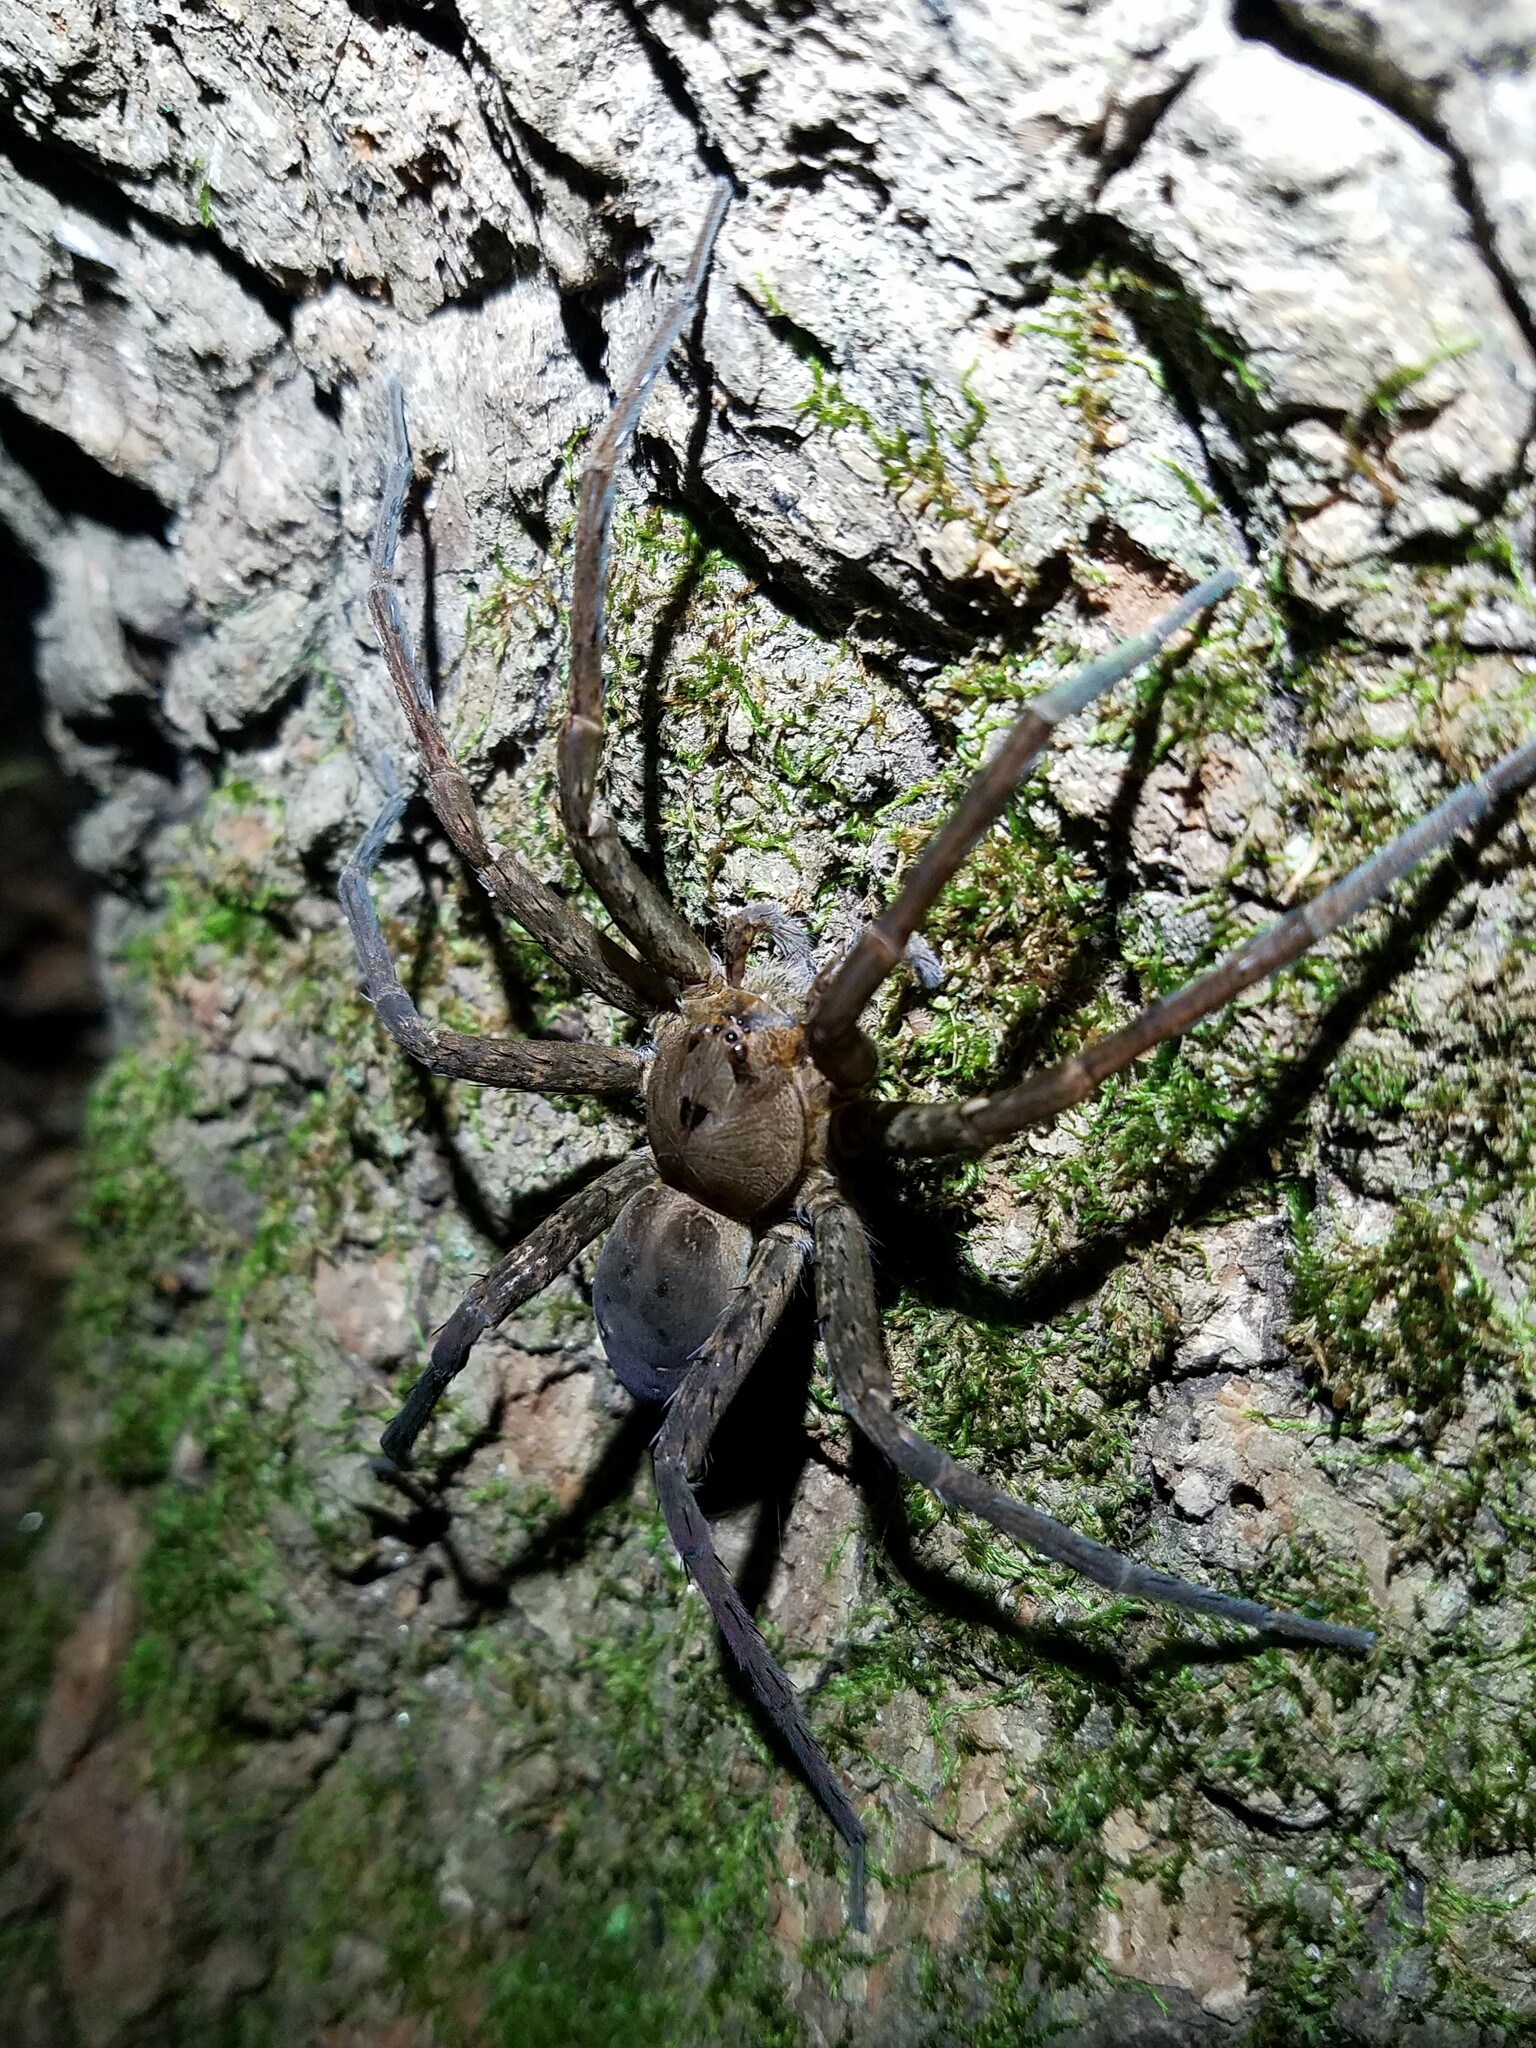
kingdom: Animalia
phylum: Arthropoda
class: Arachnida
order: Araneae
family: Pisauridae
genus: Dolomedes
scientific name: Dolomedes vittatus
